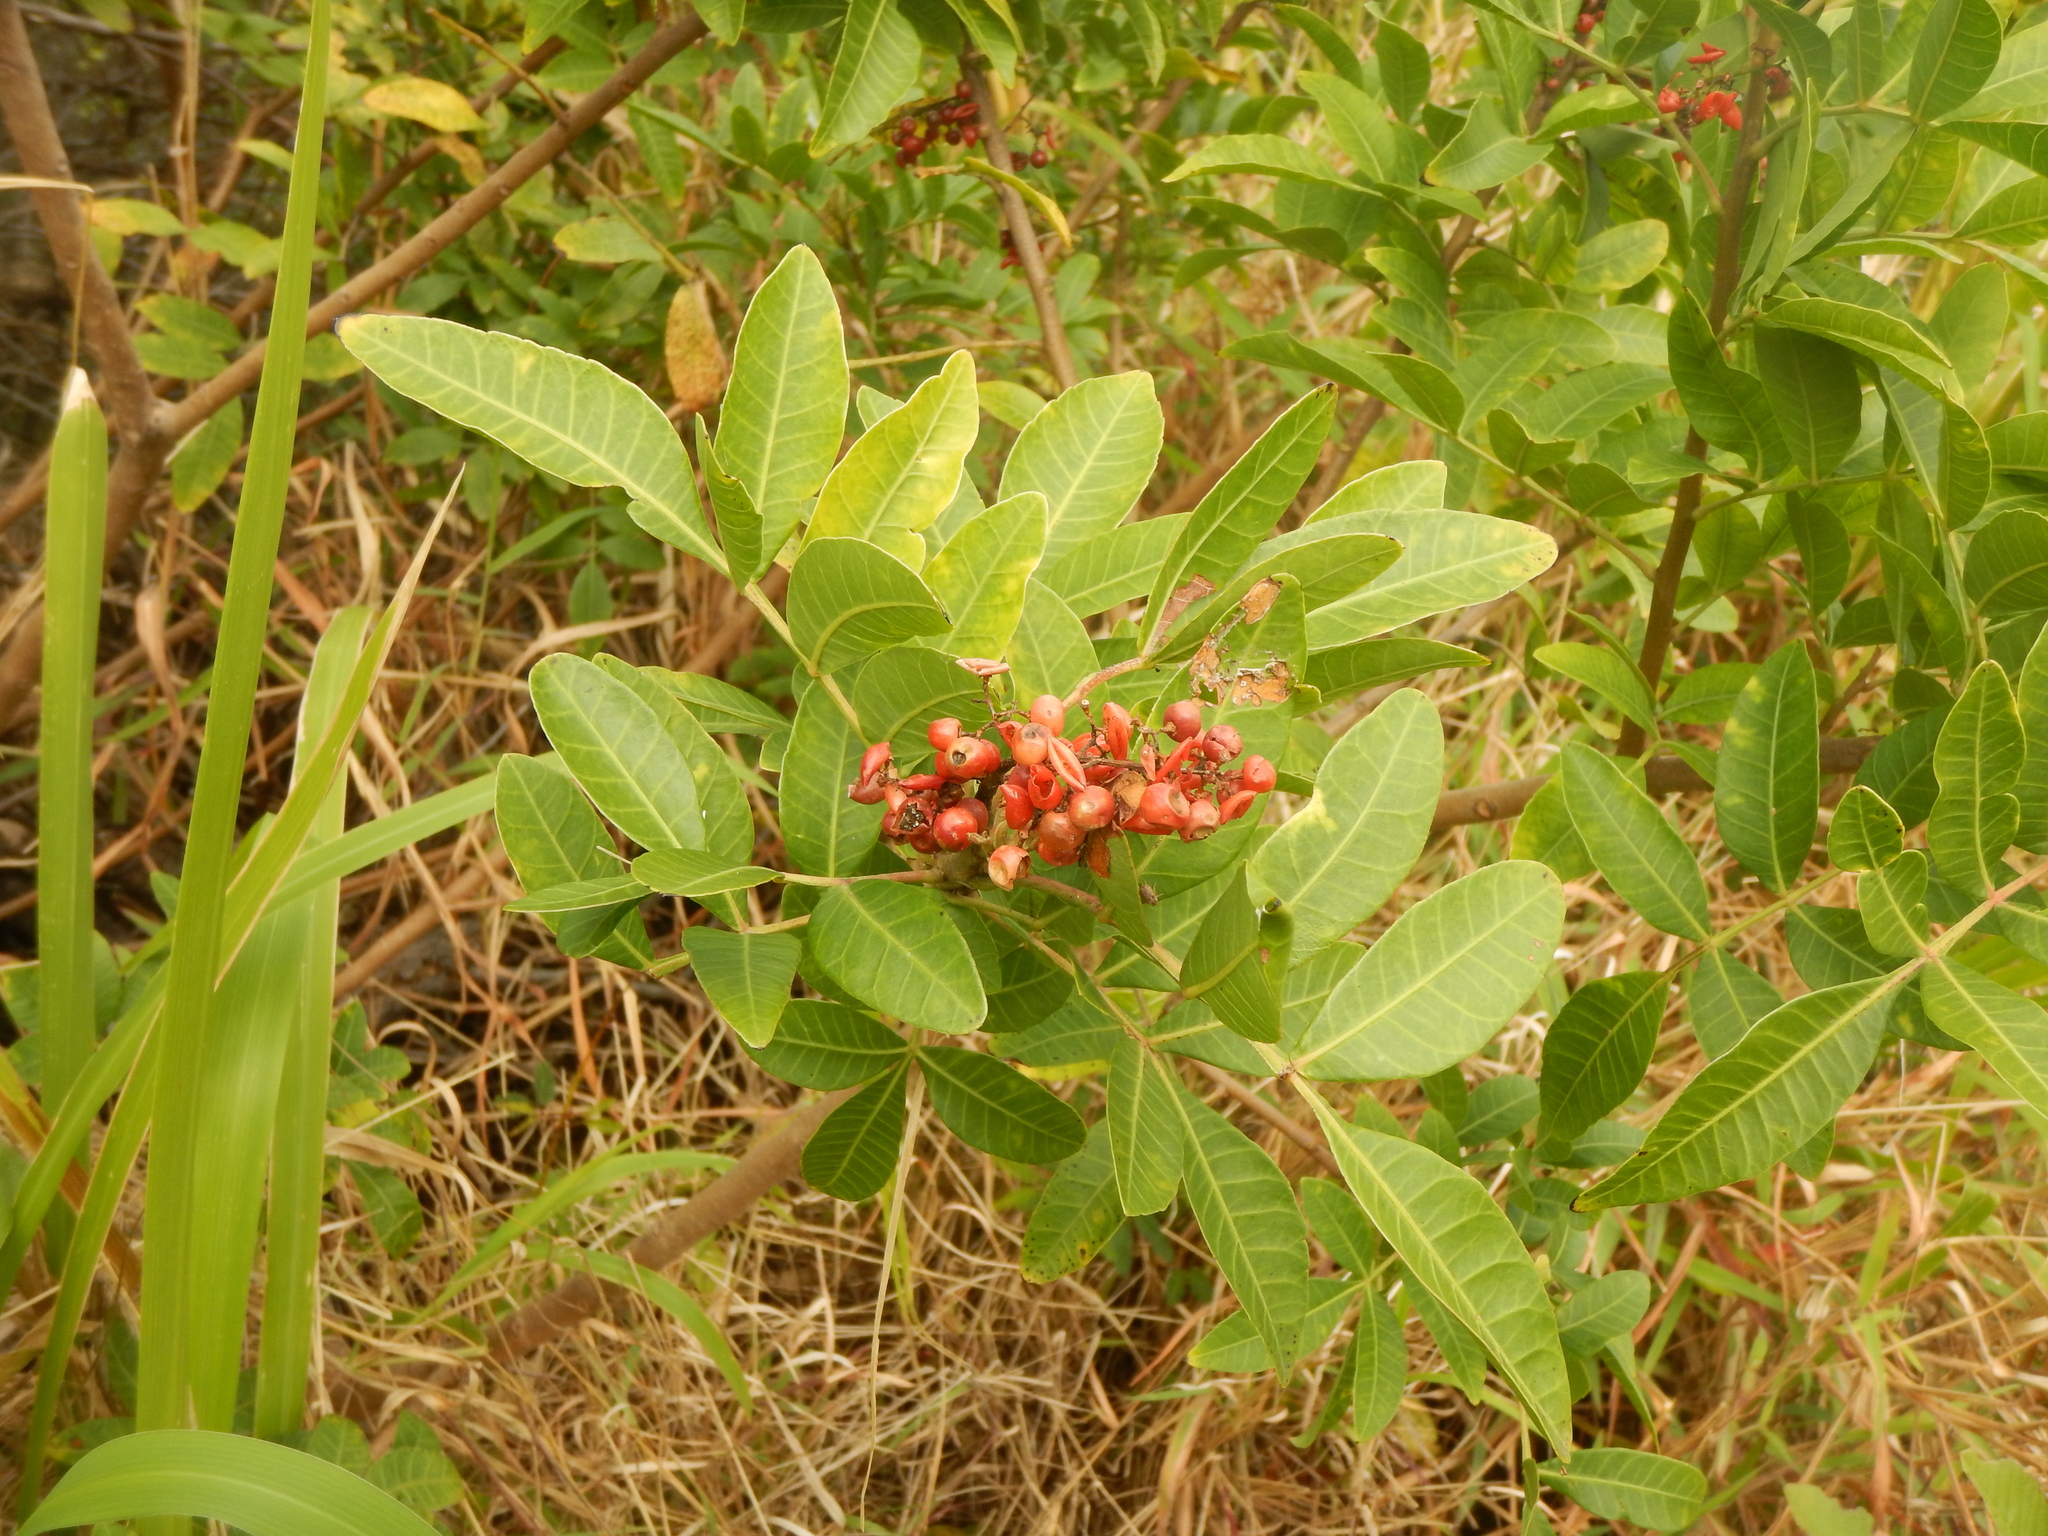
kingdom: Plantae
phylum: Tracheophyta
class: Magnoliopsida
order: Sapindales
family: Anacardiaceae
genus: Schinus
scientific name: Schinus terebinthifolia
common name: Brazilian peppertree
